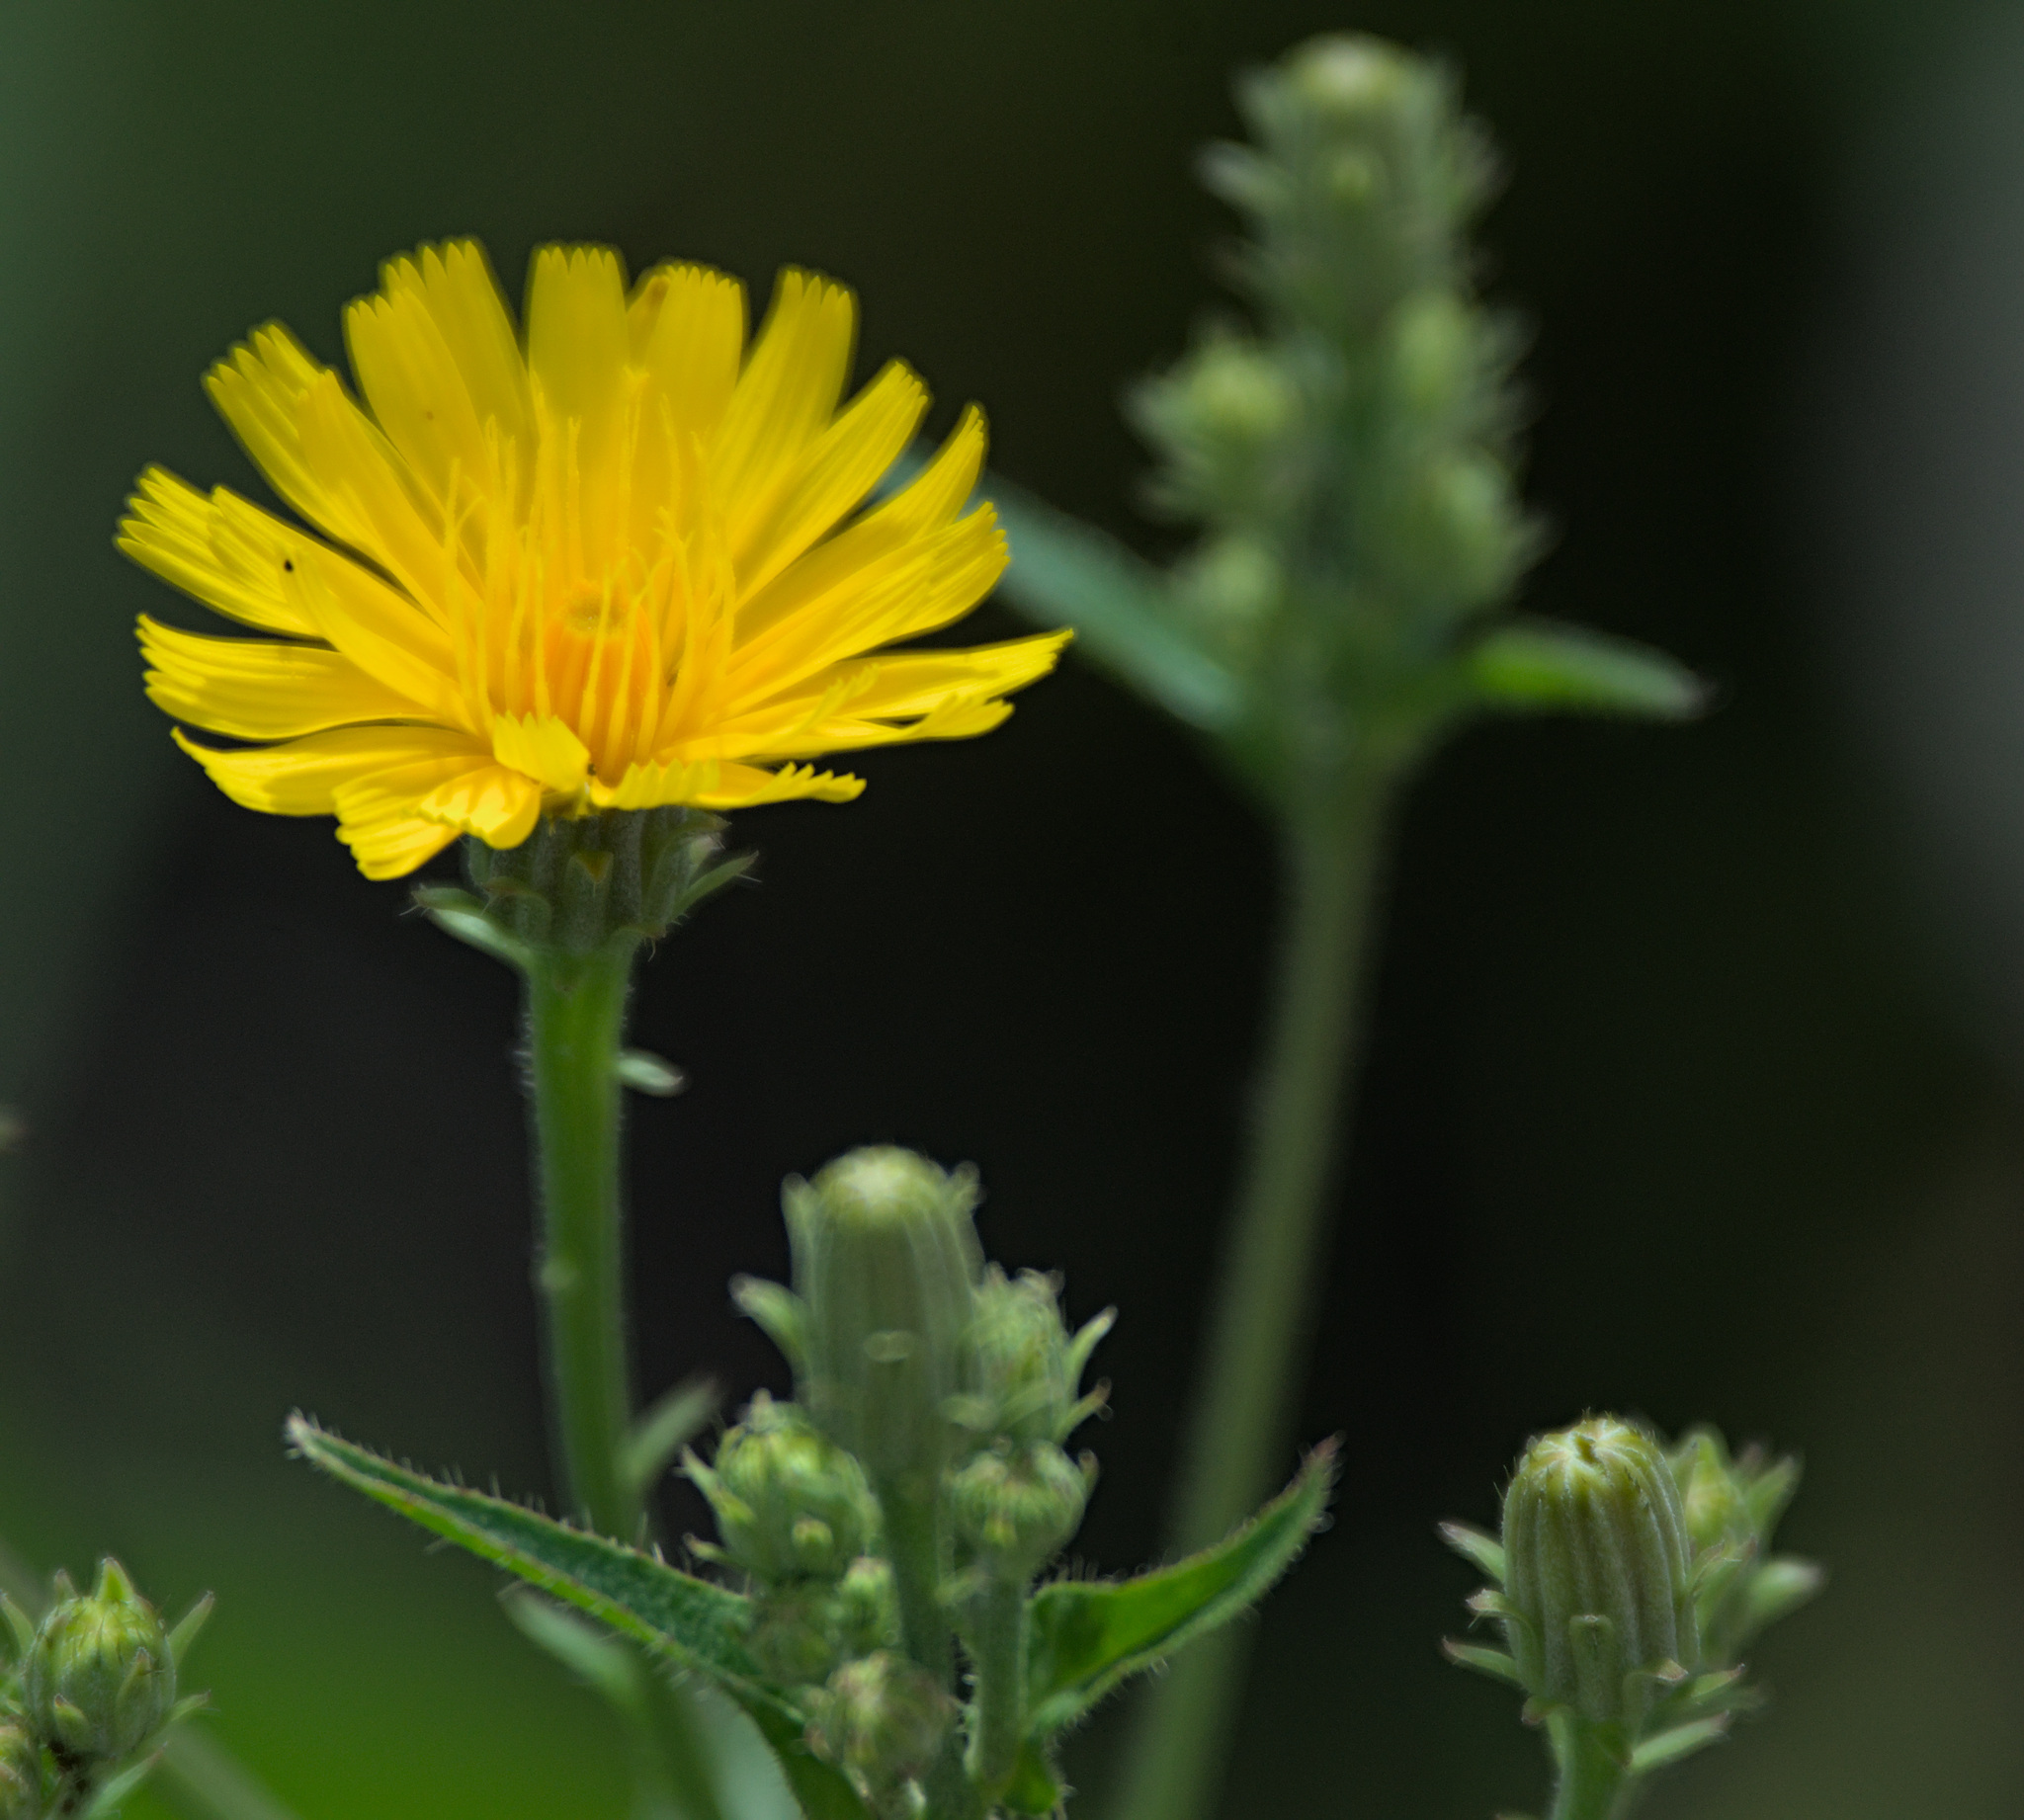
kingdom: Plantae
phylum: Tracheophyta
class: Magnoliopsida
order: Asterales
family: Asteraceae
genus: Picris
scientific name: Picris hieracioides
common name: Hawkweed oxtongue
